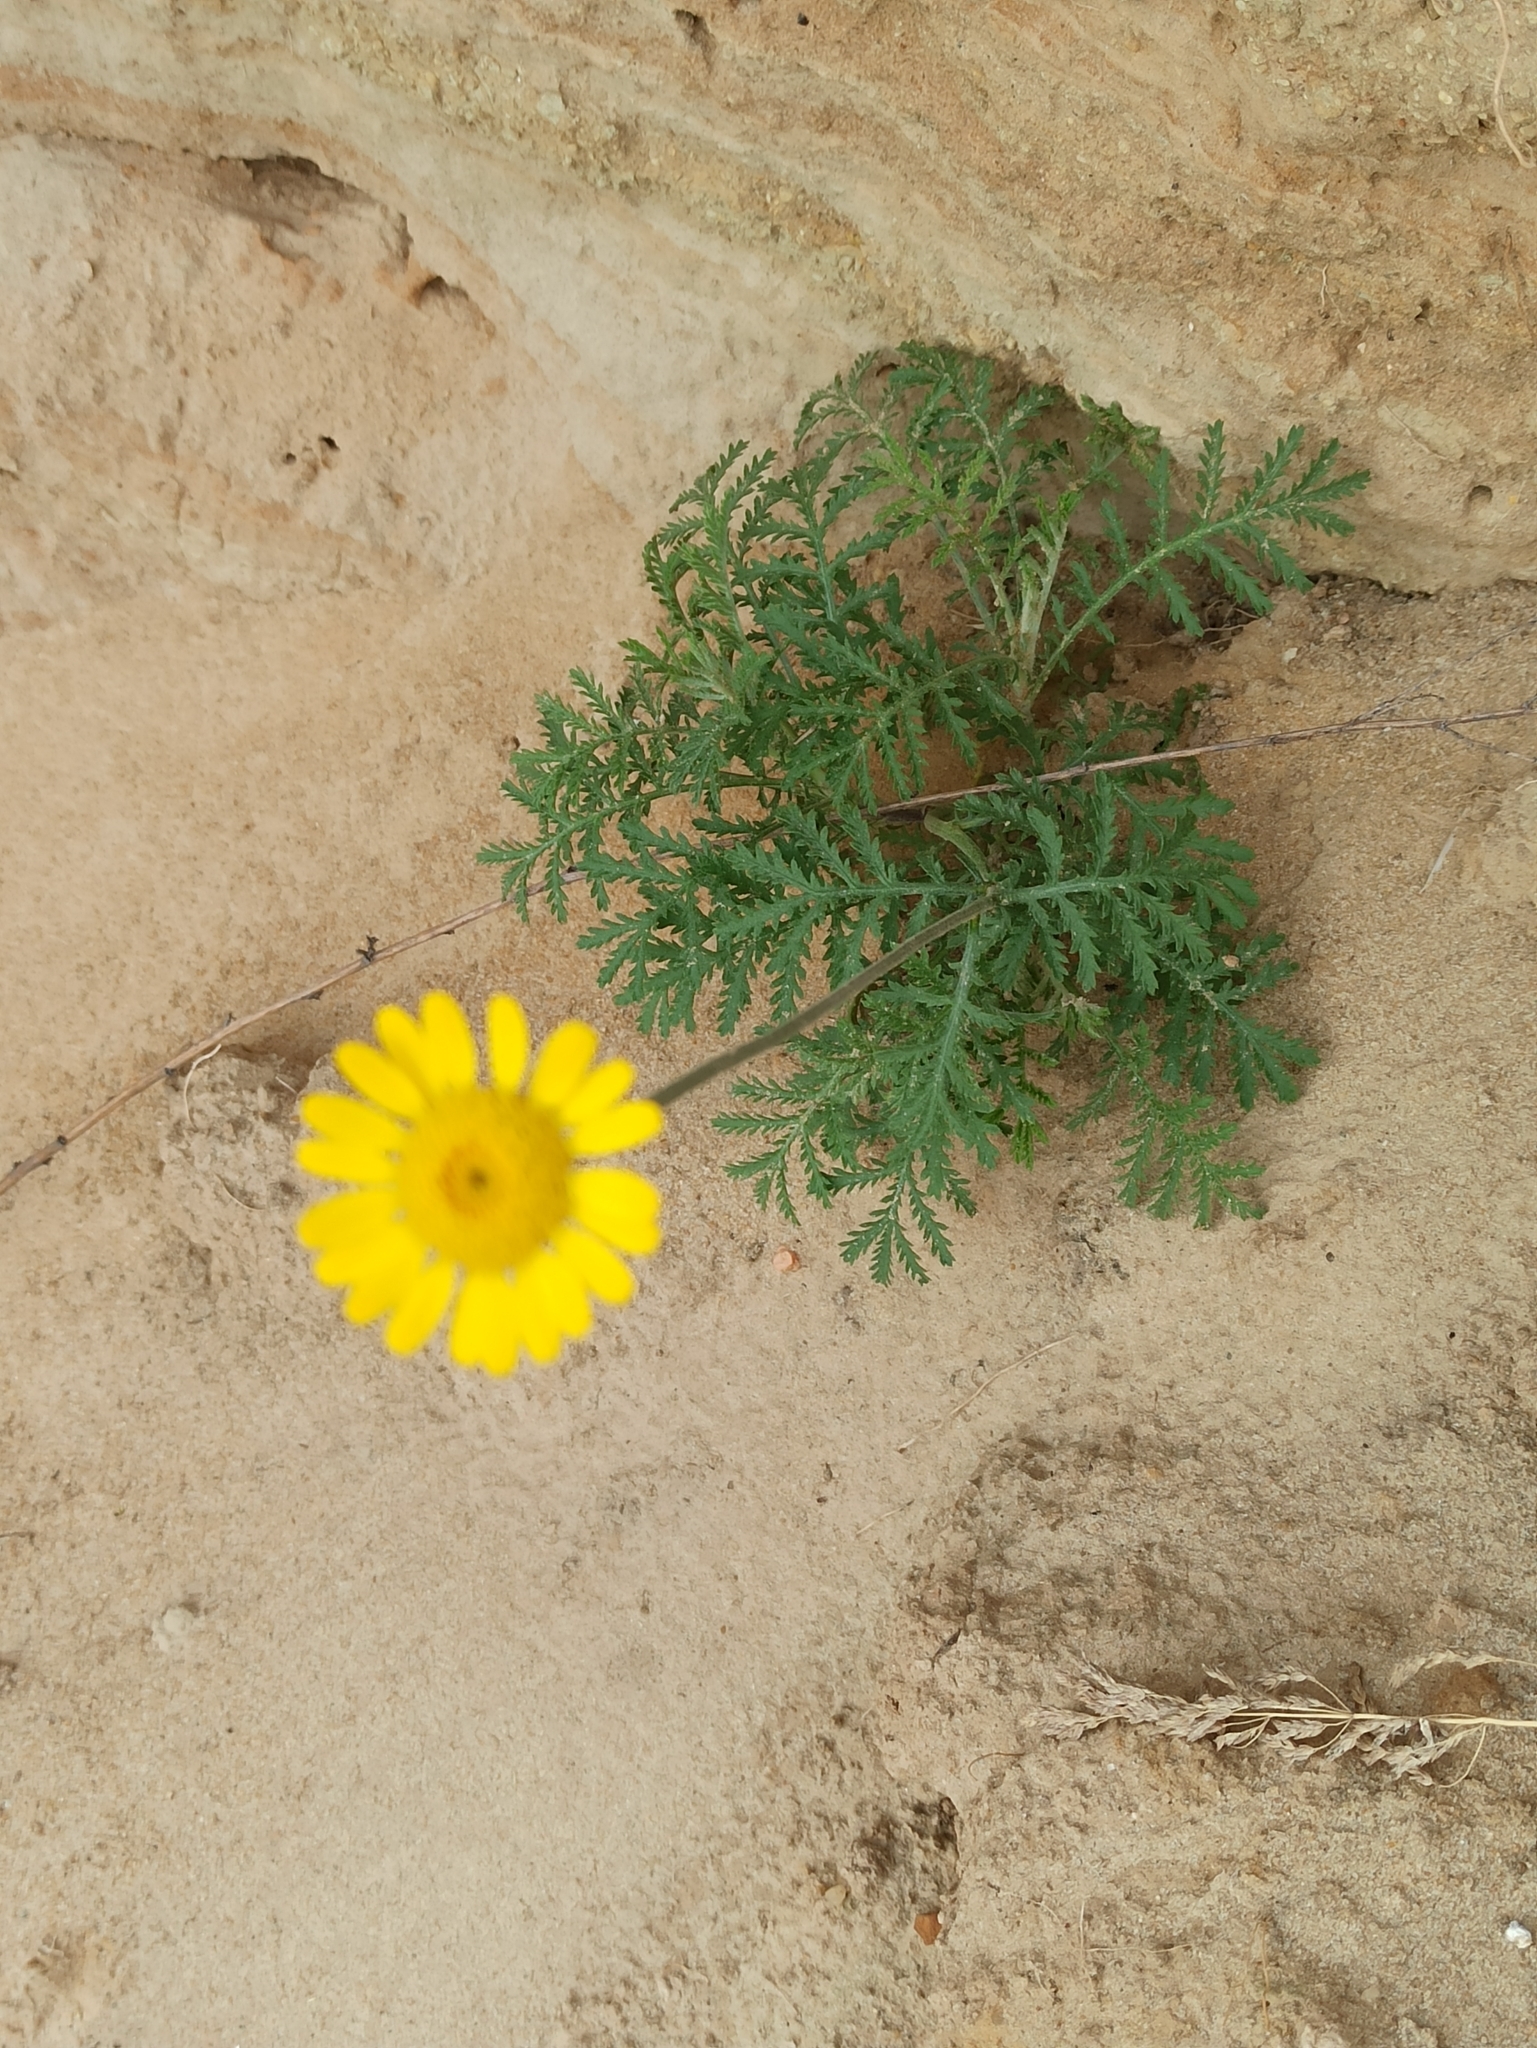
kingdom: Plantae
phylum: Tracheophyta
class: Magnoliopsida
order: Asterales
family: Asteraceae
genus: Cota
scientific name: Cota tinctoria
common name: Golden chamomile
